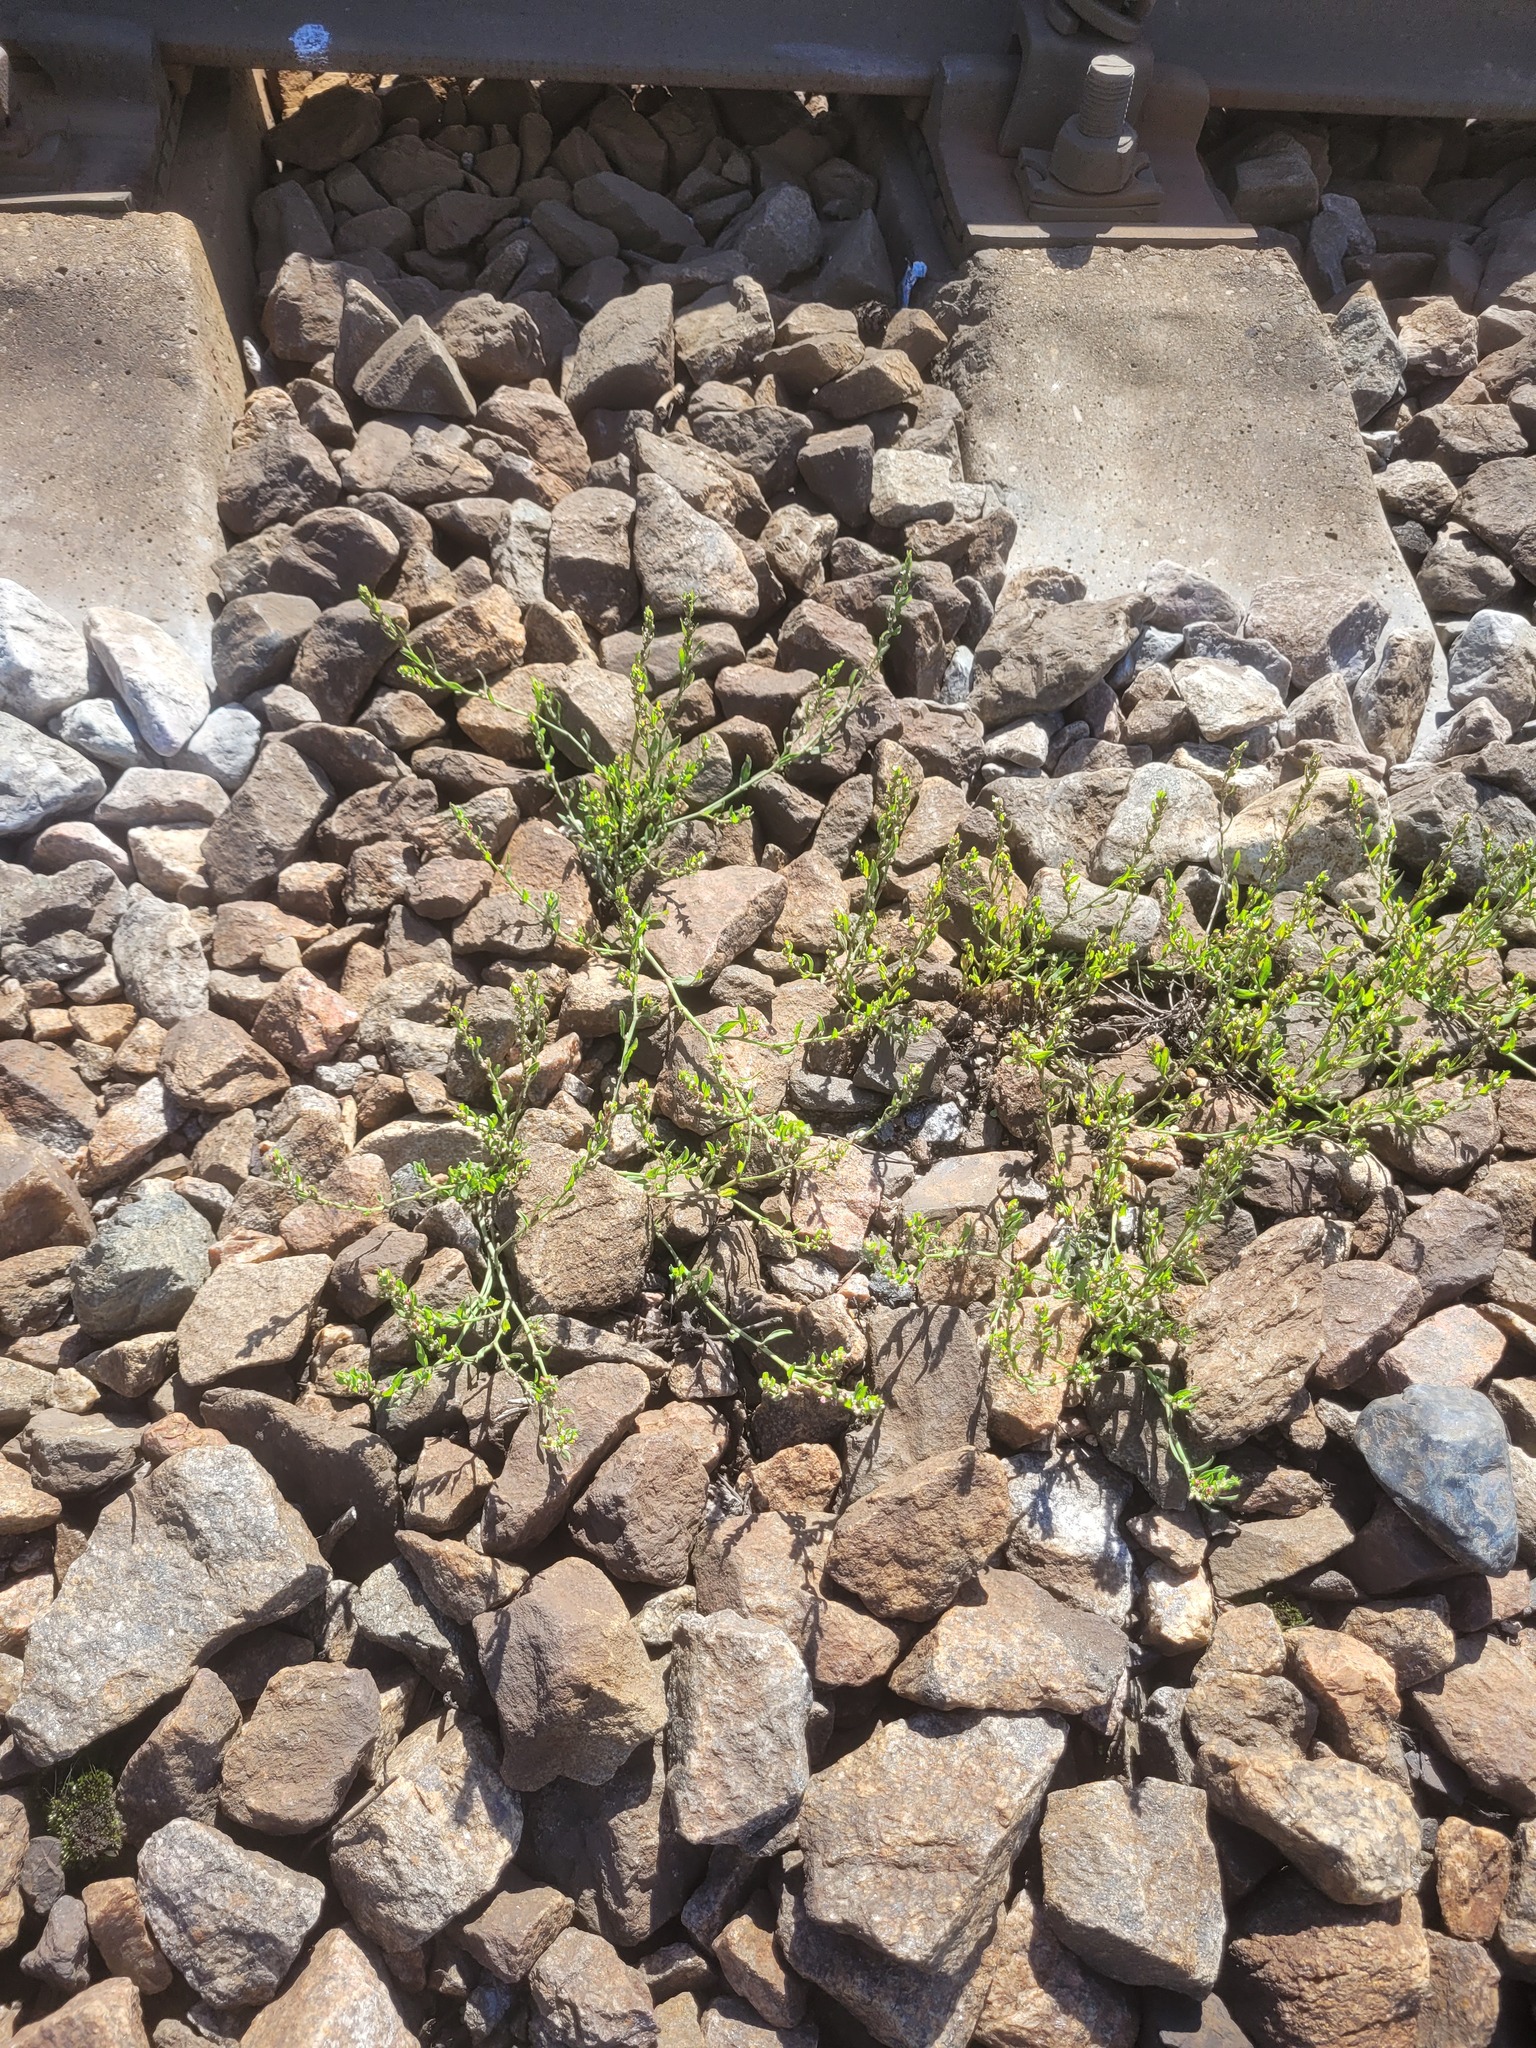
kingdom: Plantae
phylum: Tracheophyta
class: Magnoliopsida
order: Caryophyllales
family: Polygonaceae
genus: Polygonum
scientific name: Polygonum
